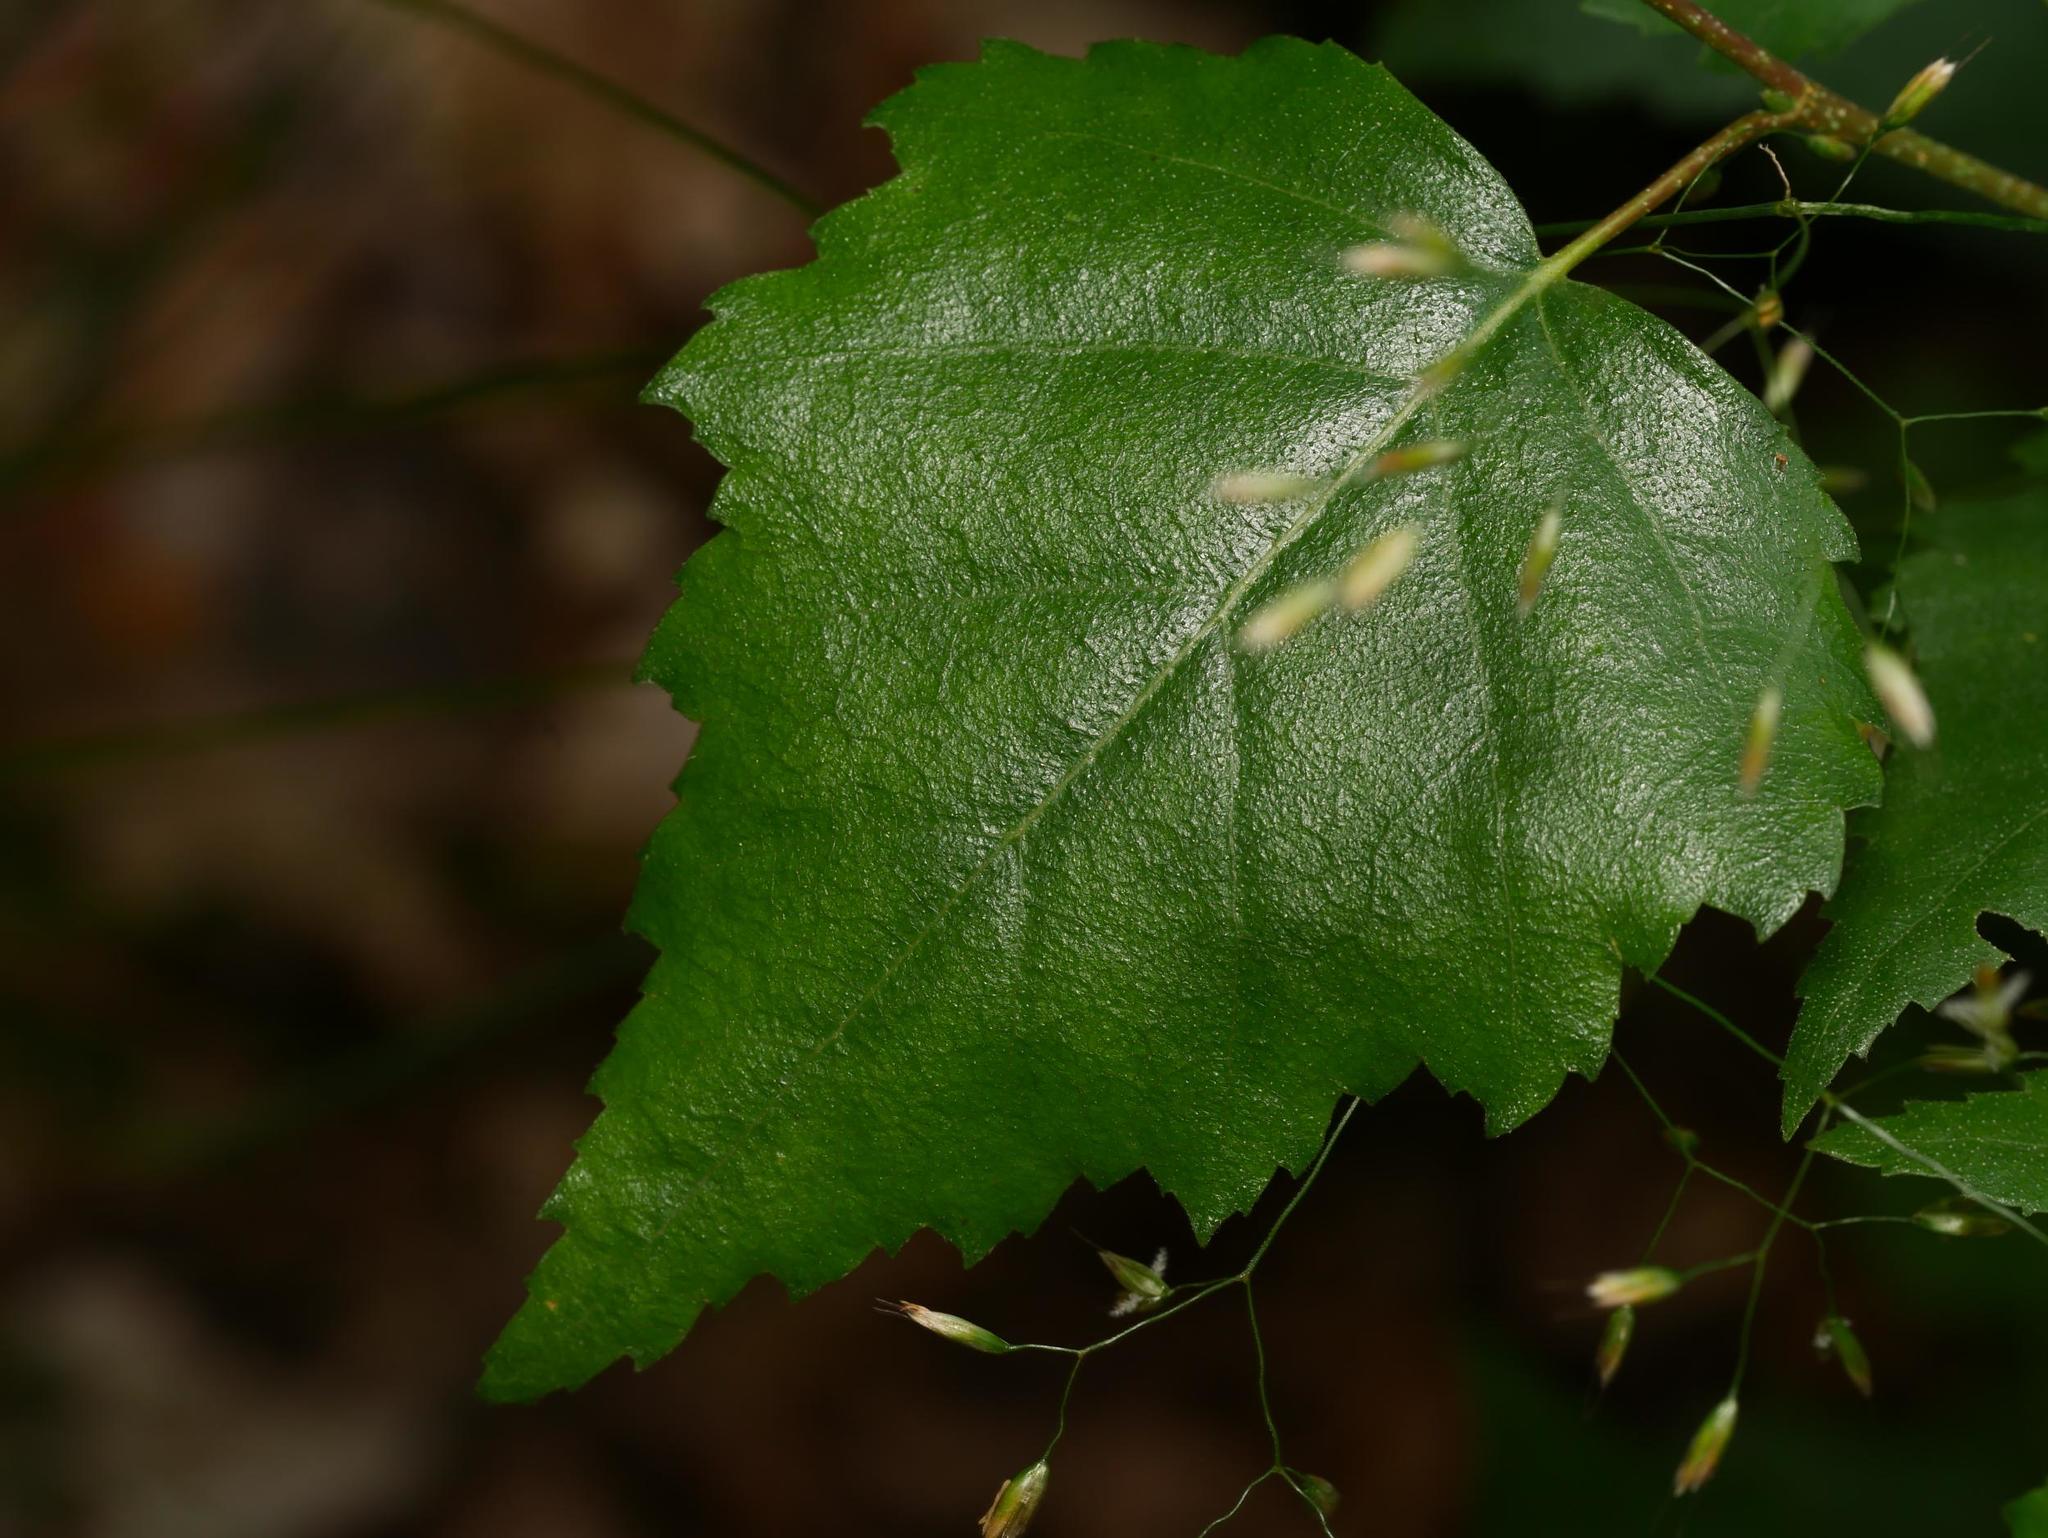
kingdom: Plantae
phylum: Tracheophyta
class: Magnoliopsida
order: Fagales
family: Betulaceae
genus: Betula
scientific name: Betula pendula
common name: Silver birch
